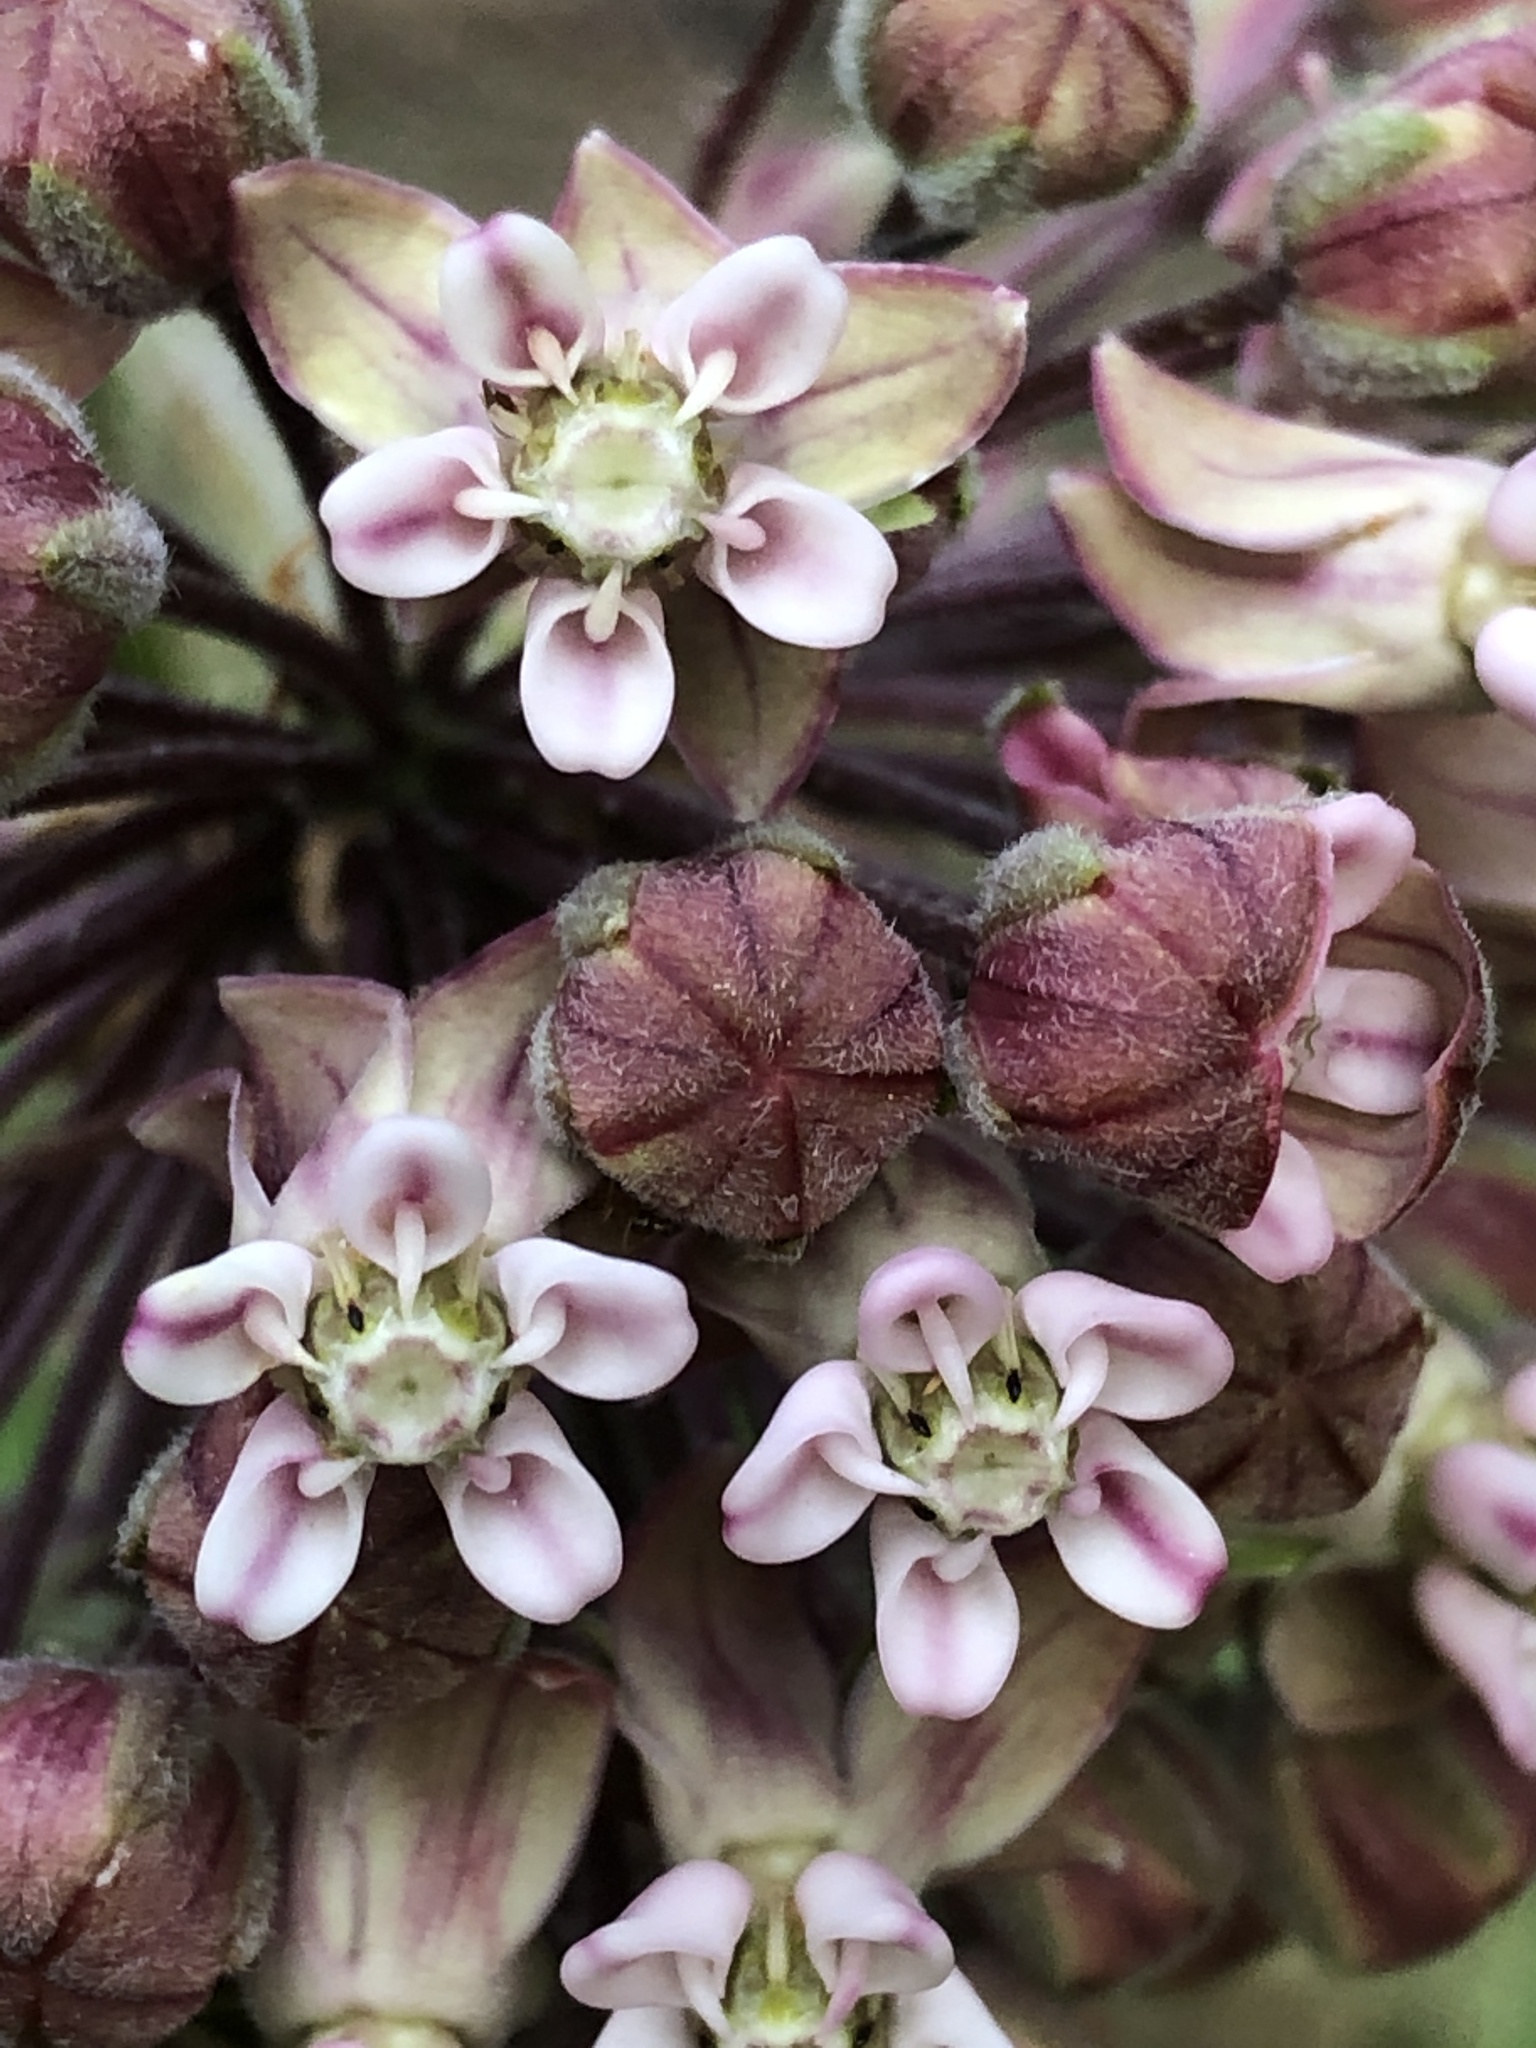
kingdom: Plantae
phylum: Tracheophyta
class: Magnoliopsida
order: Gentianales
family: Apocynaceae
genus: Asclepias
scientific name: Asclepias syriaca
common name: Common milkweed
